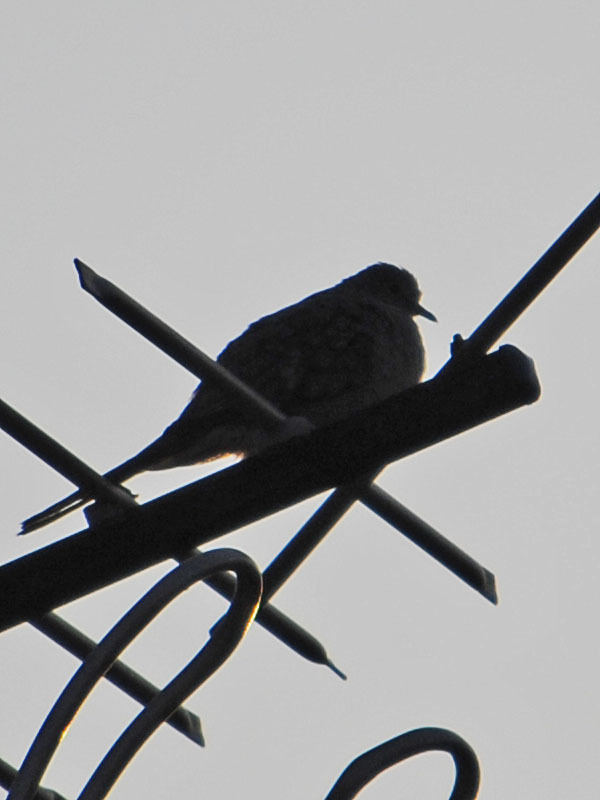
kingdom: Animalia
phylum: Chordata
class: Aves
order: Columbiformes
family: Columbidae
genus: Columbina
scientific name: Columbina inca
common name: Inca dove
